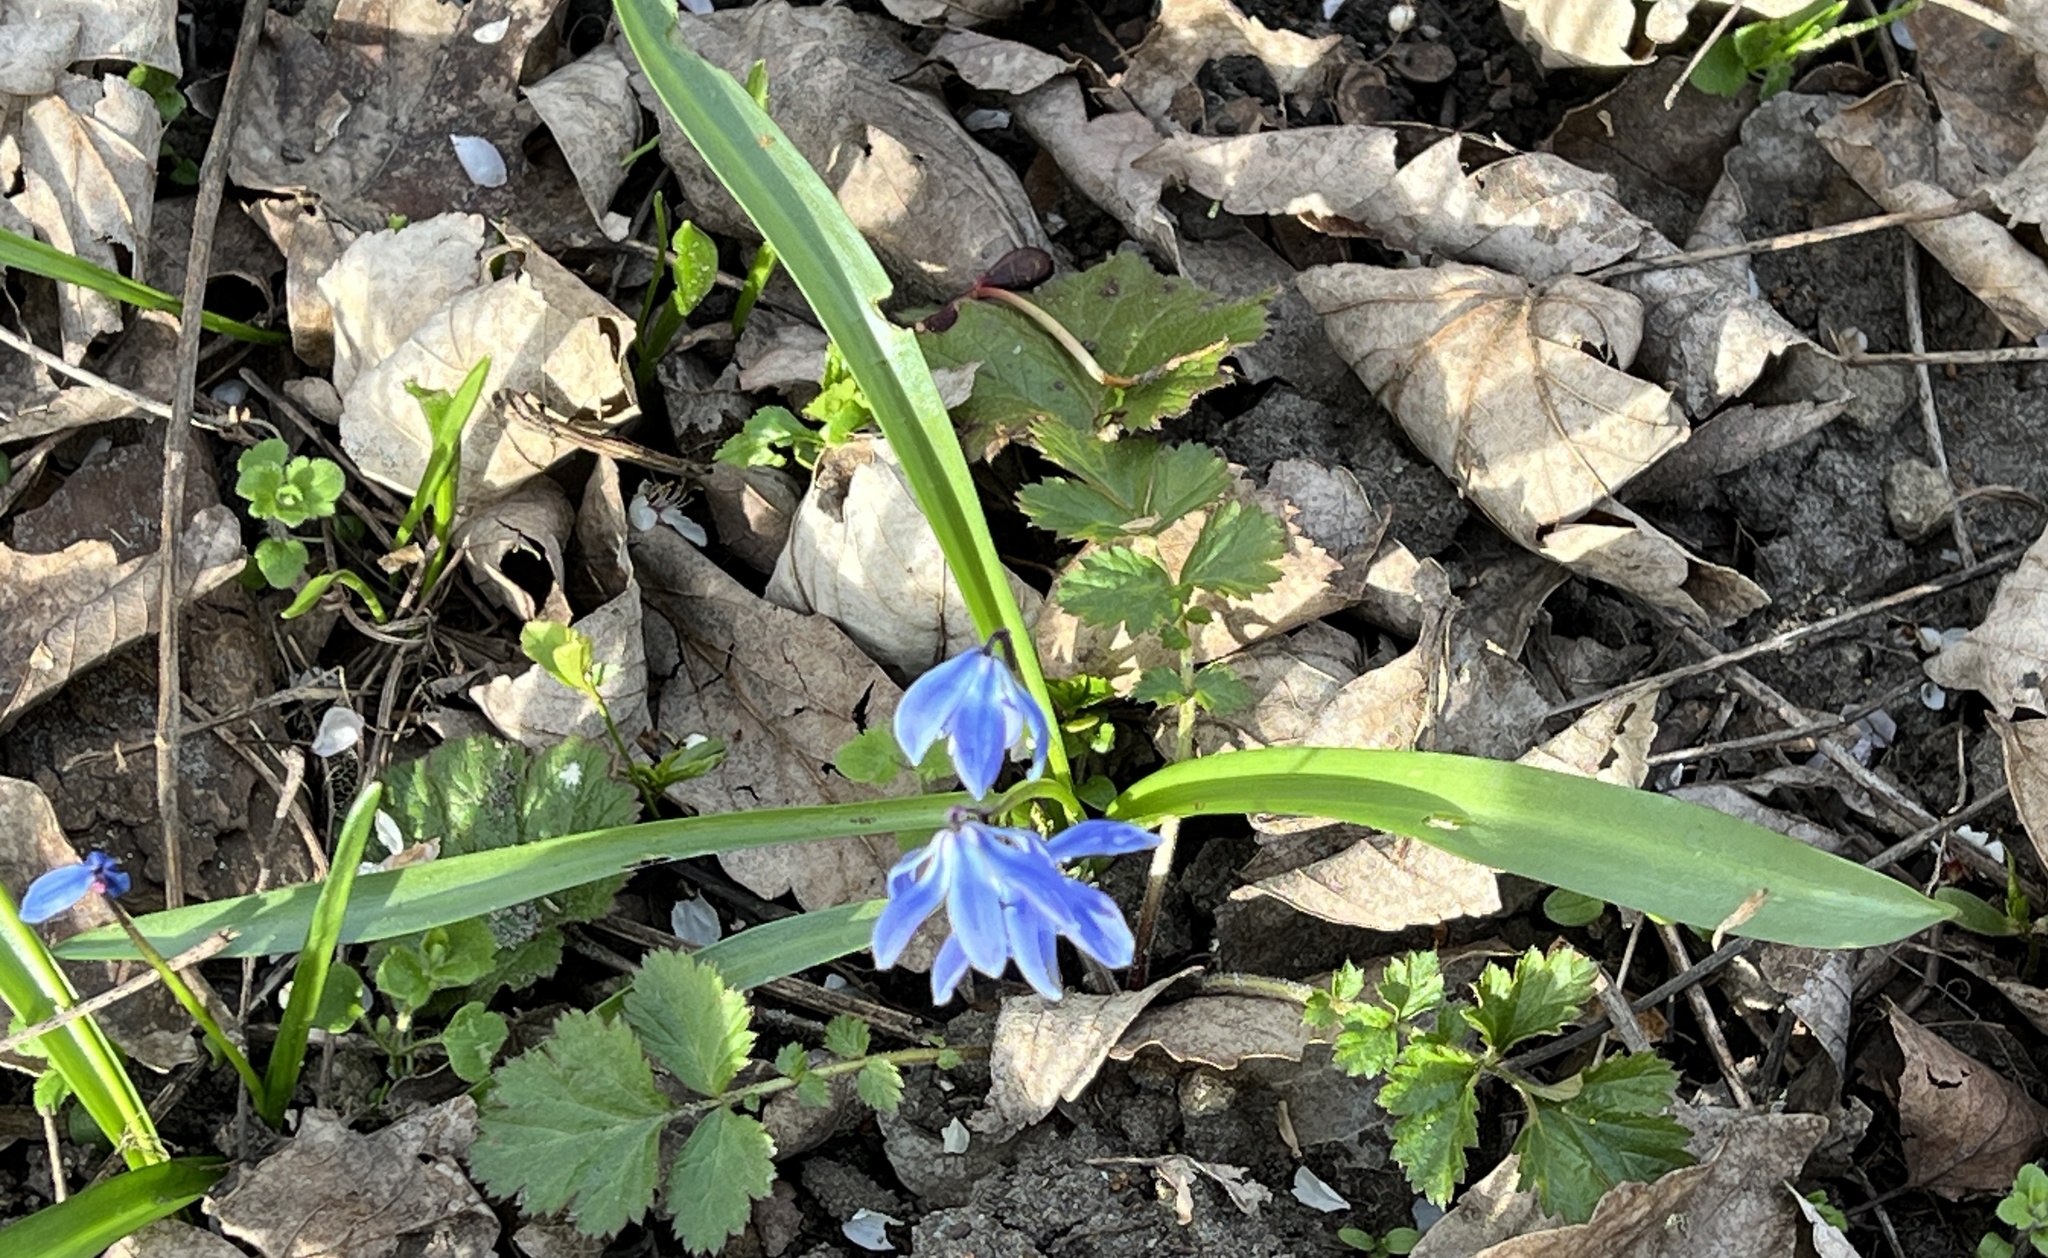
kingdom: Plantae
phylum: Tracheophyta
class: Liliopsida
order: Asparagales
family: Asparagaceae
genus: Scilla
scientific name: Scilla siberica
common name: Siberian squill
